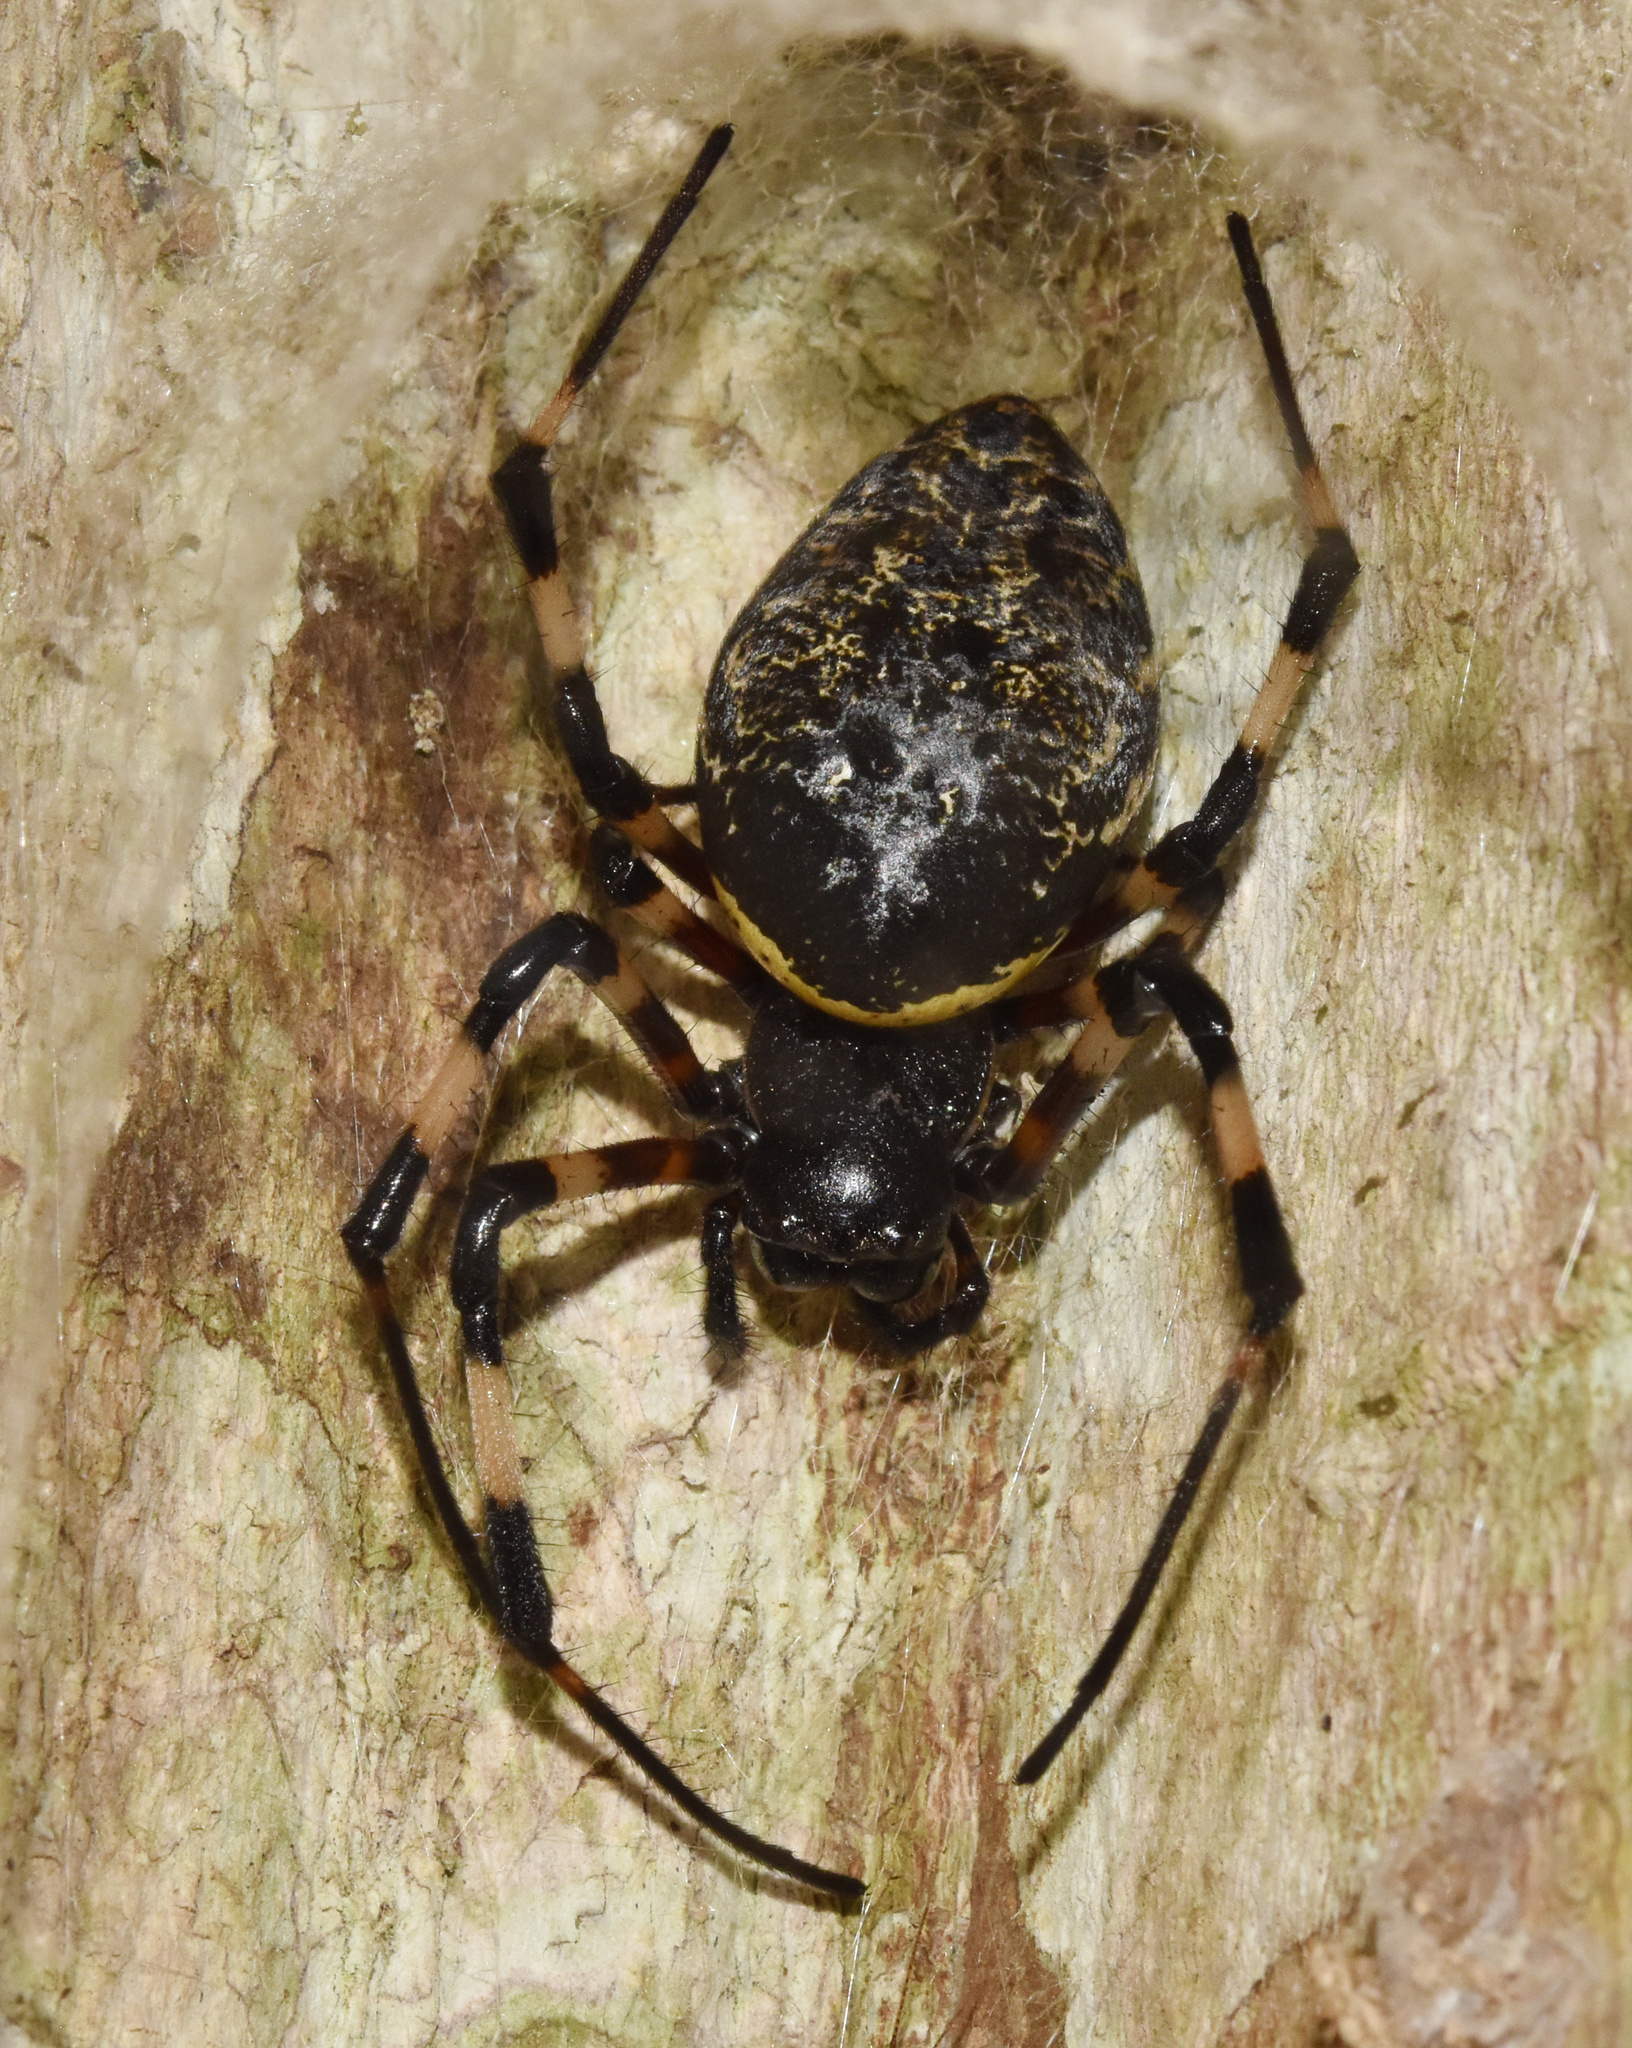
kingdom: Animalia
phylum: Arthropoda
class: Arachnida
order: Araneae
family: Araneidae
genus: Nephilingis
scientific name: Nephilingis cruentata
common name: African hermit spider
